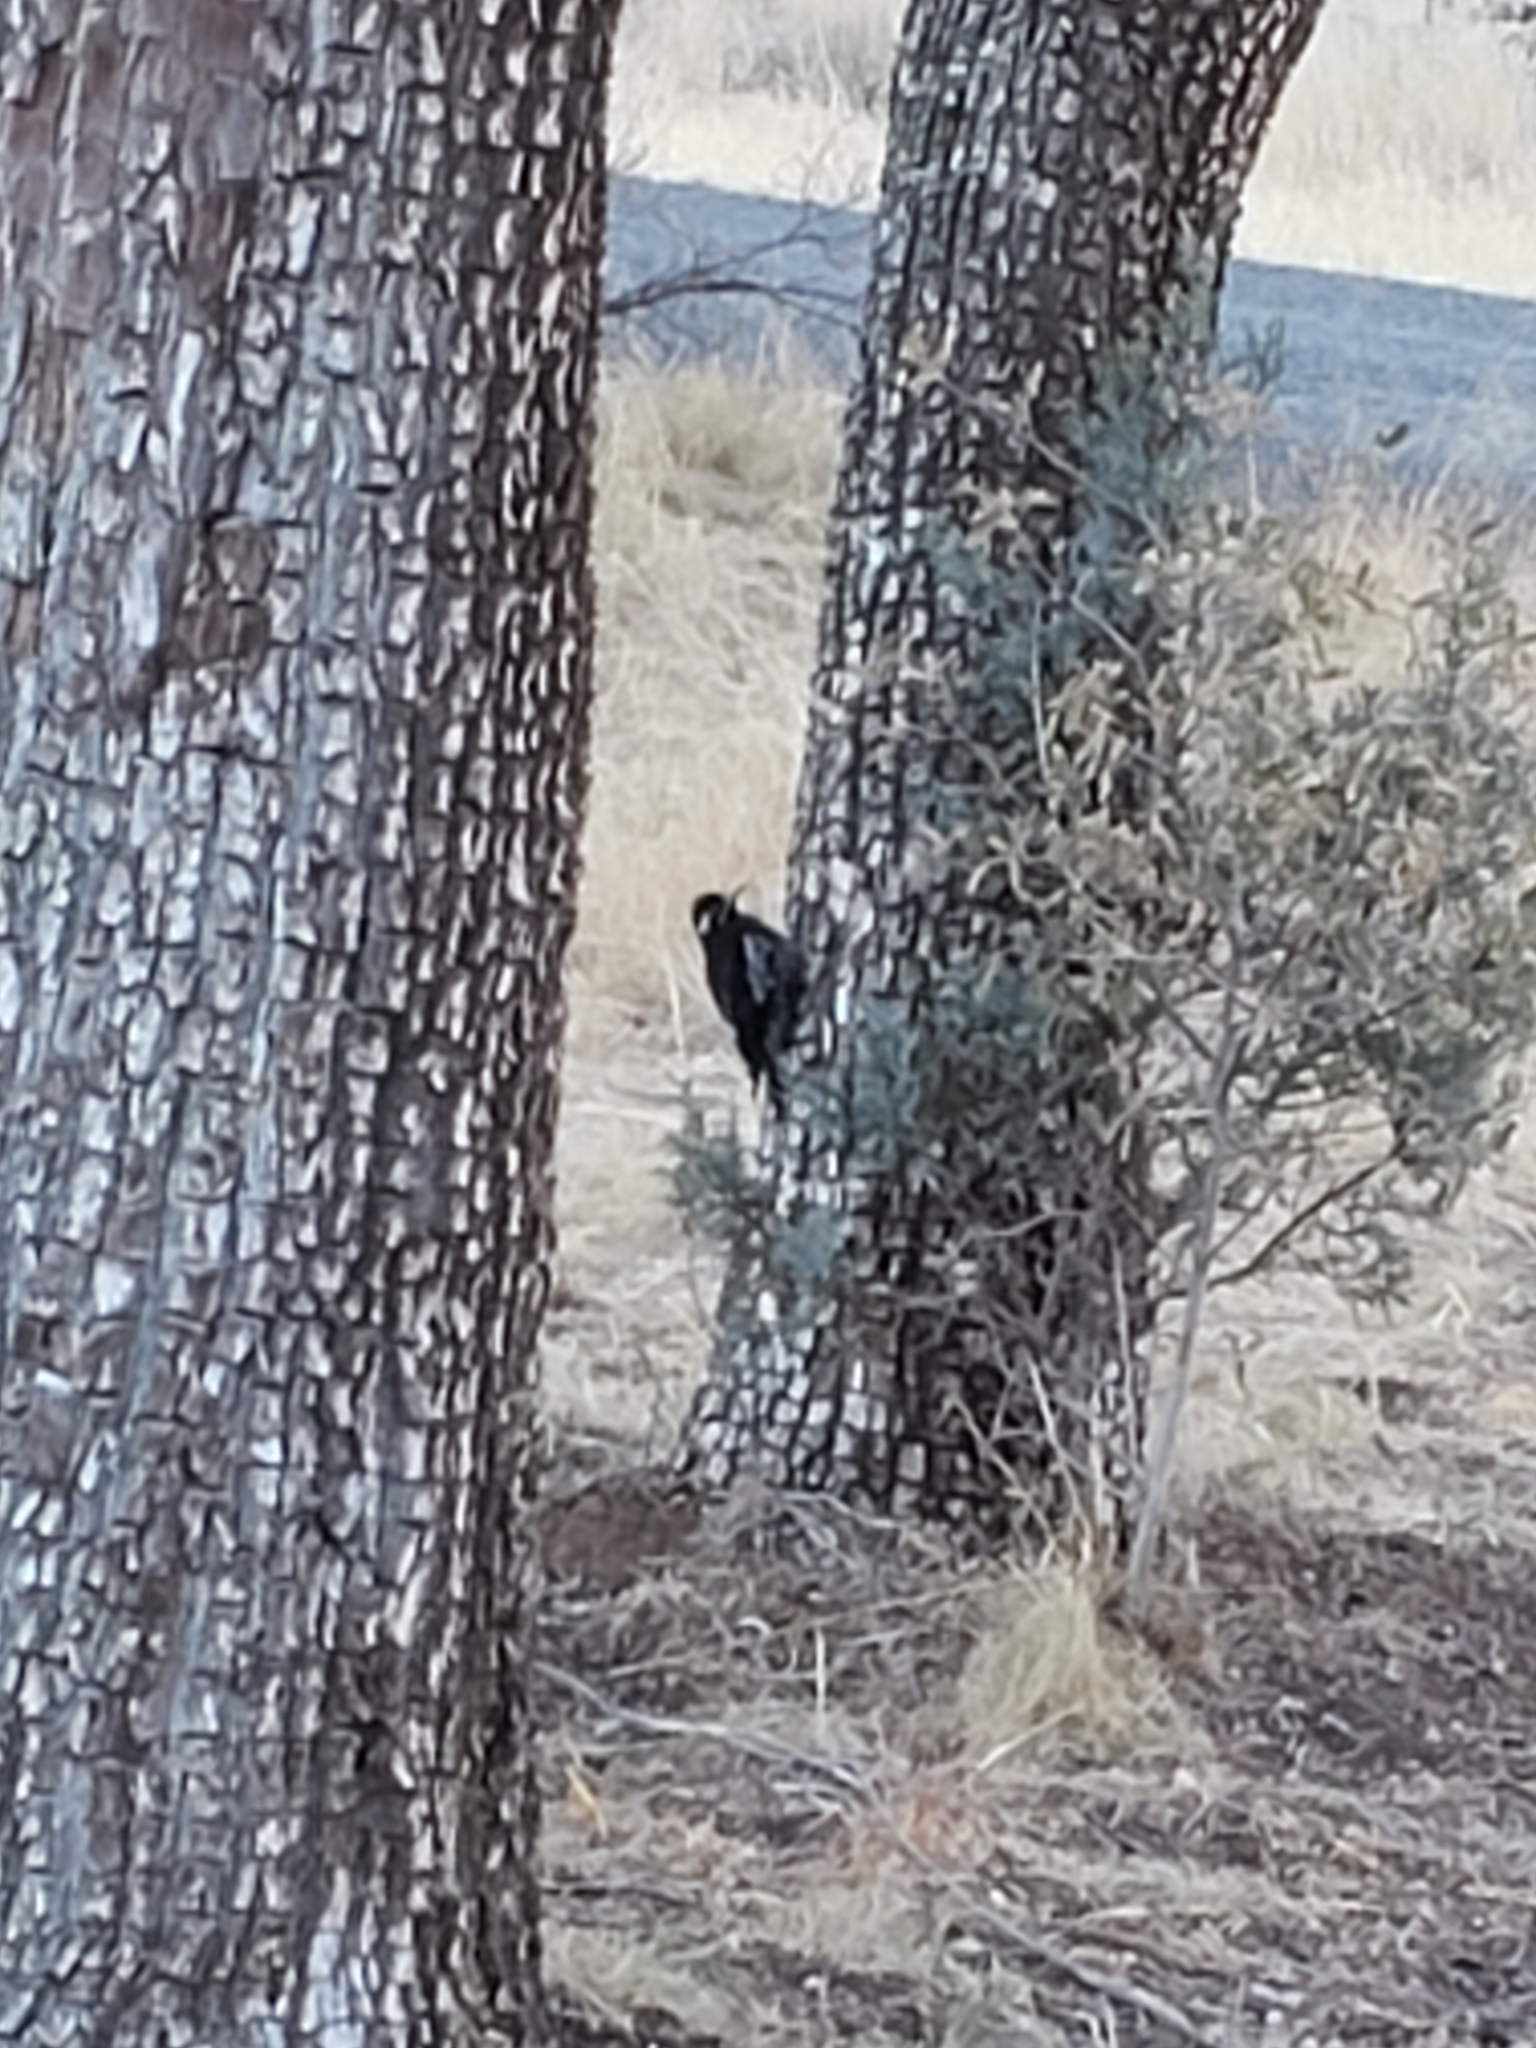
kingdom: Animalia
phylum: Chordata
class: Aves
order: Piciformes
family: Picidae
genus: Sphyrapicus
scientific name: Sphyrapicus thyroideus
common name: Williamson's sapsucker
